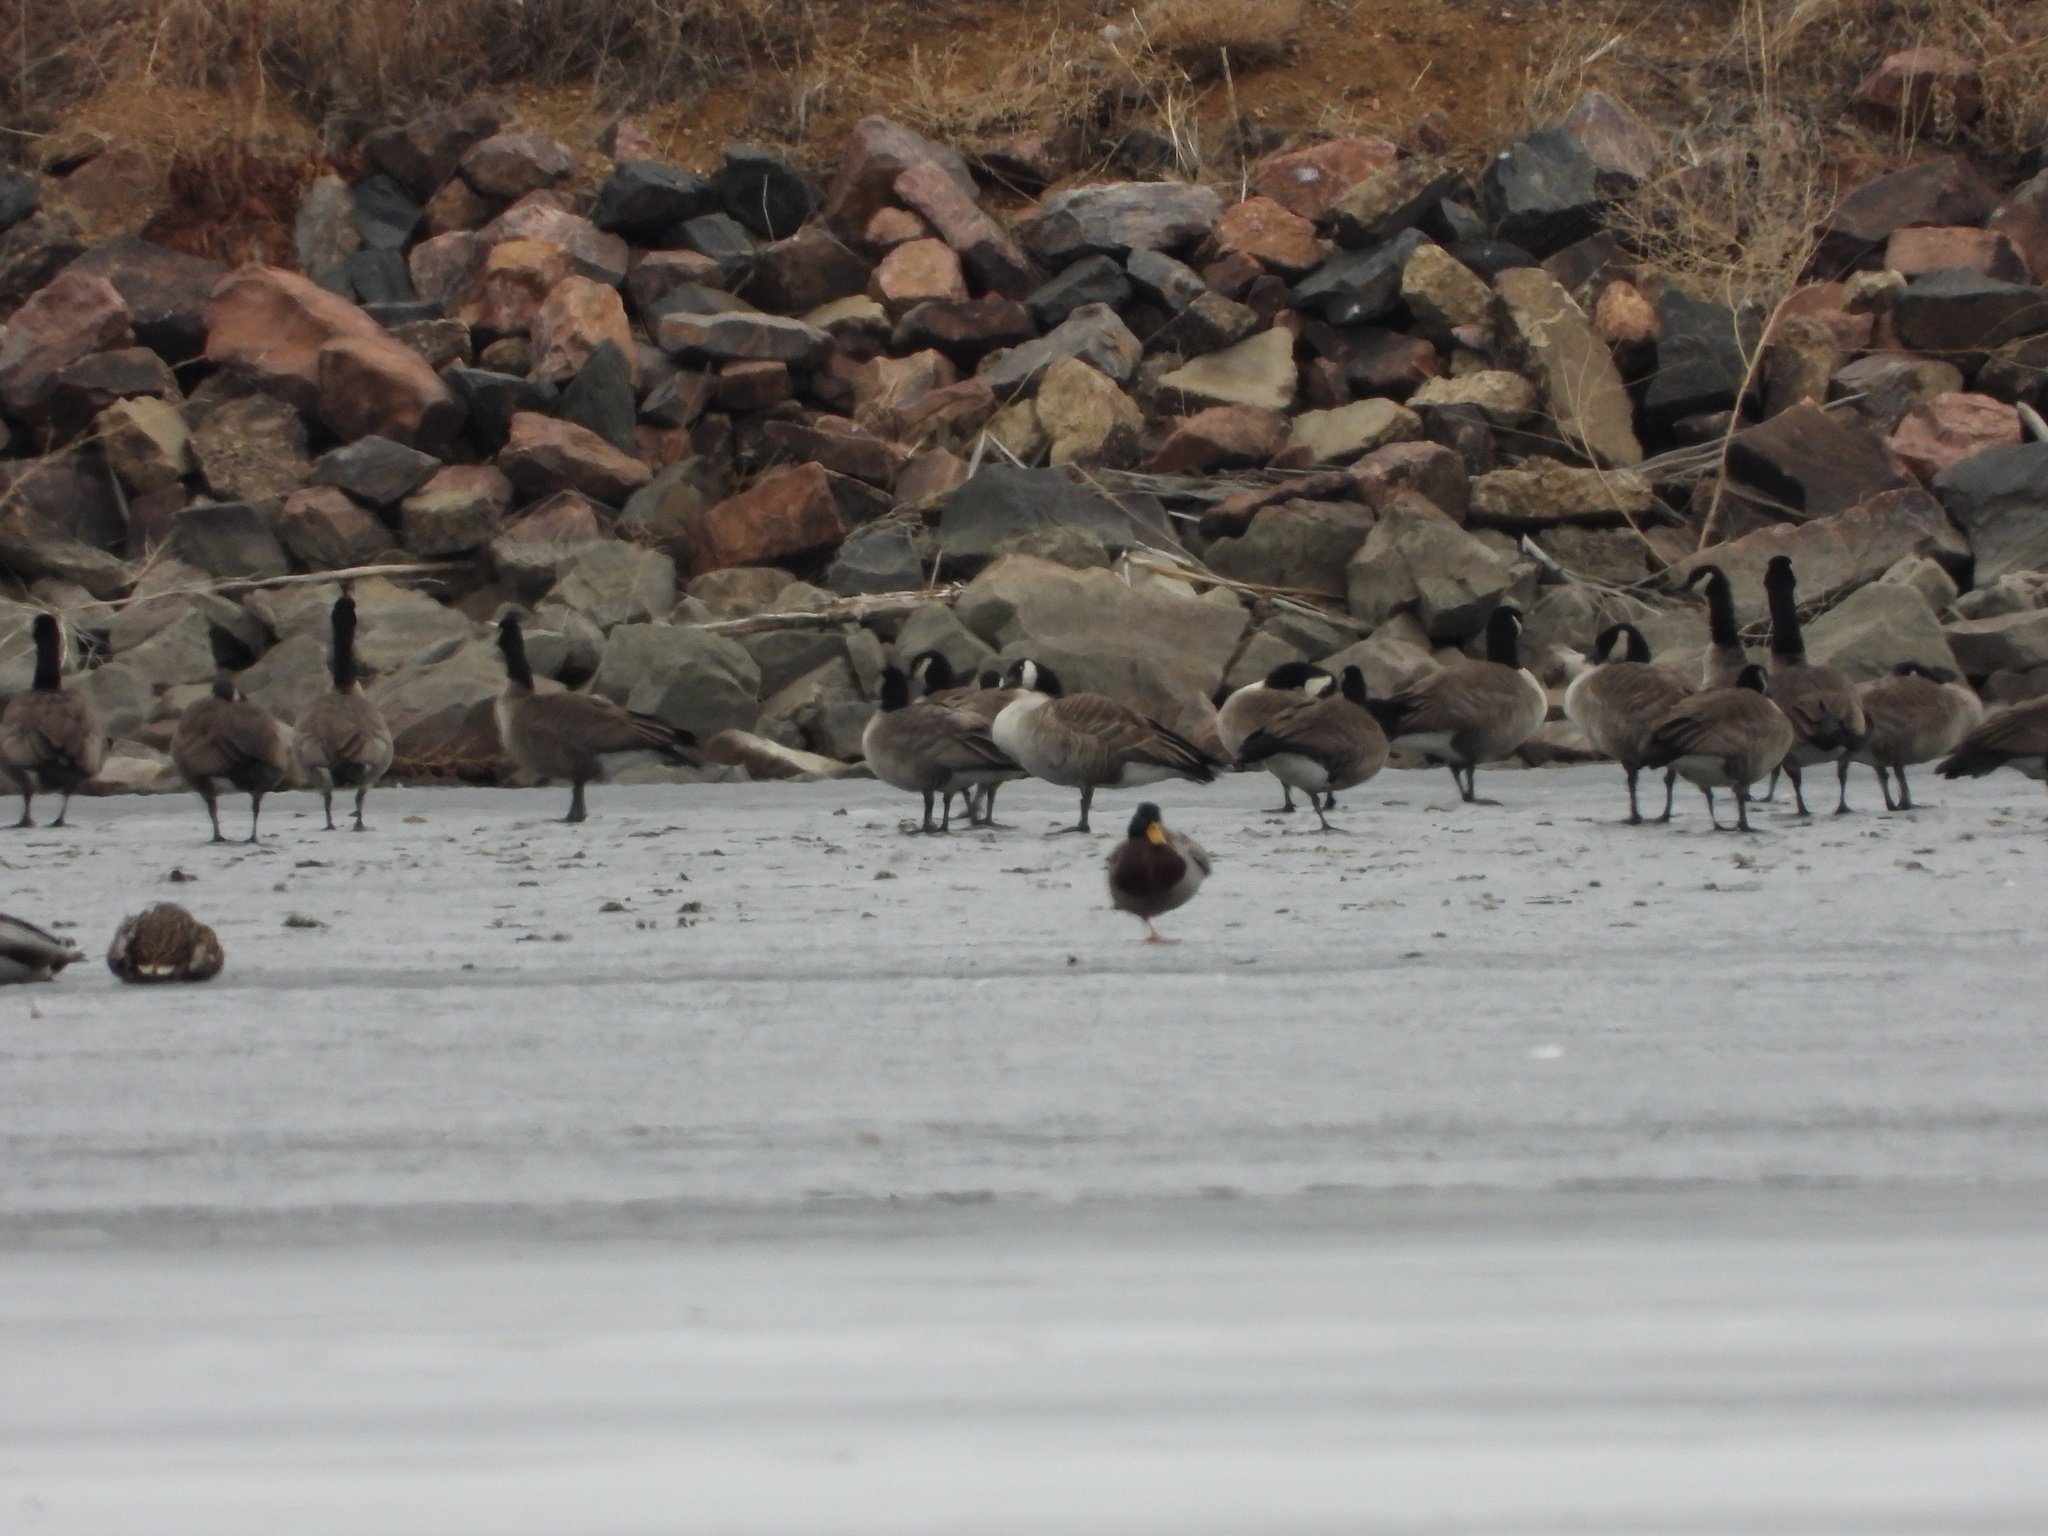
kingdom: Animalia
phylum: Chordata
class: Aves
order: Anseriformes
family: Anatidae
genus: Branta
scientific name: Branta hutchinsii
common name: Cackling goose
